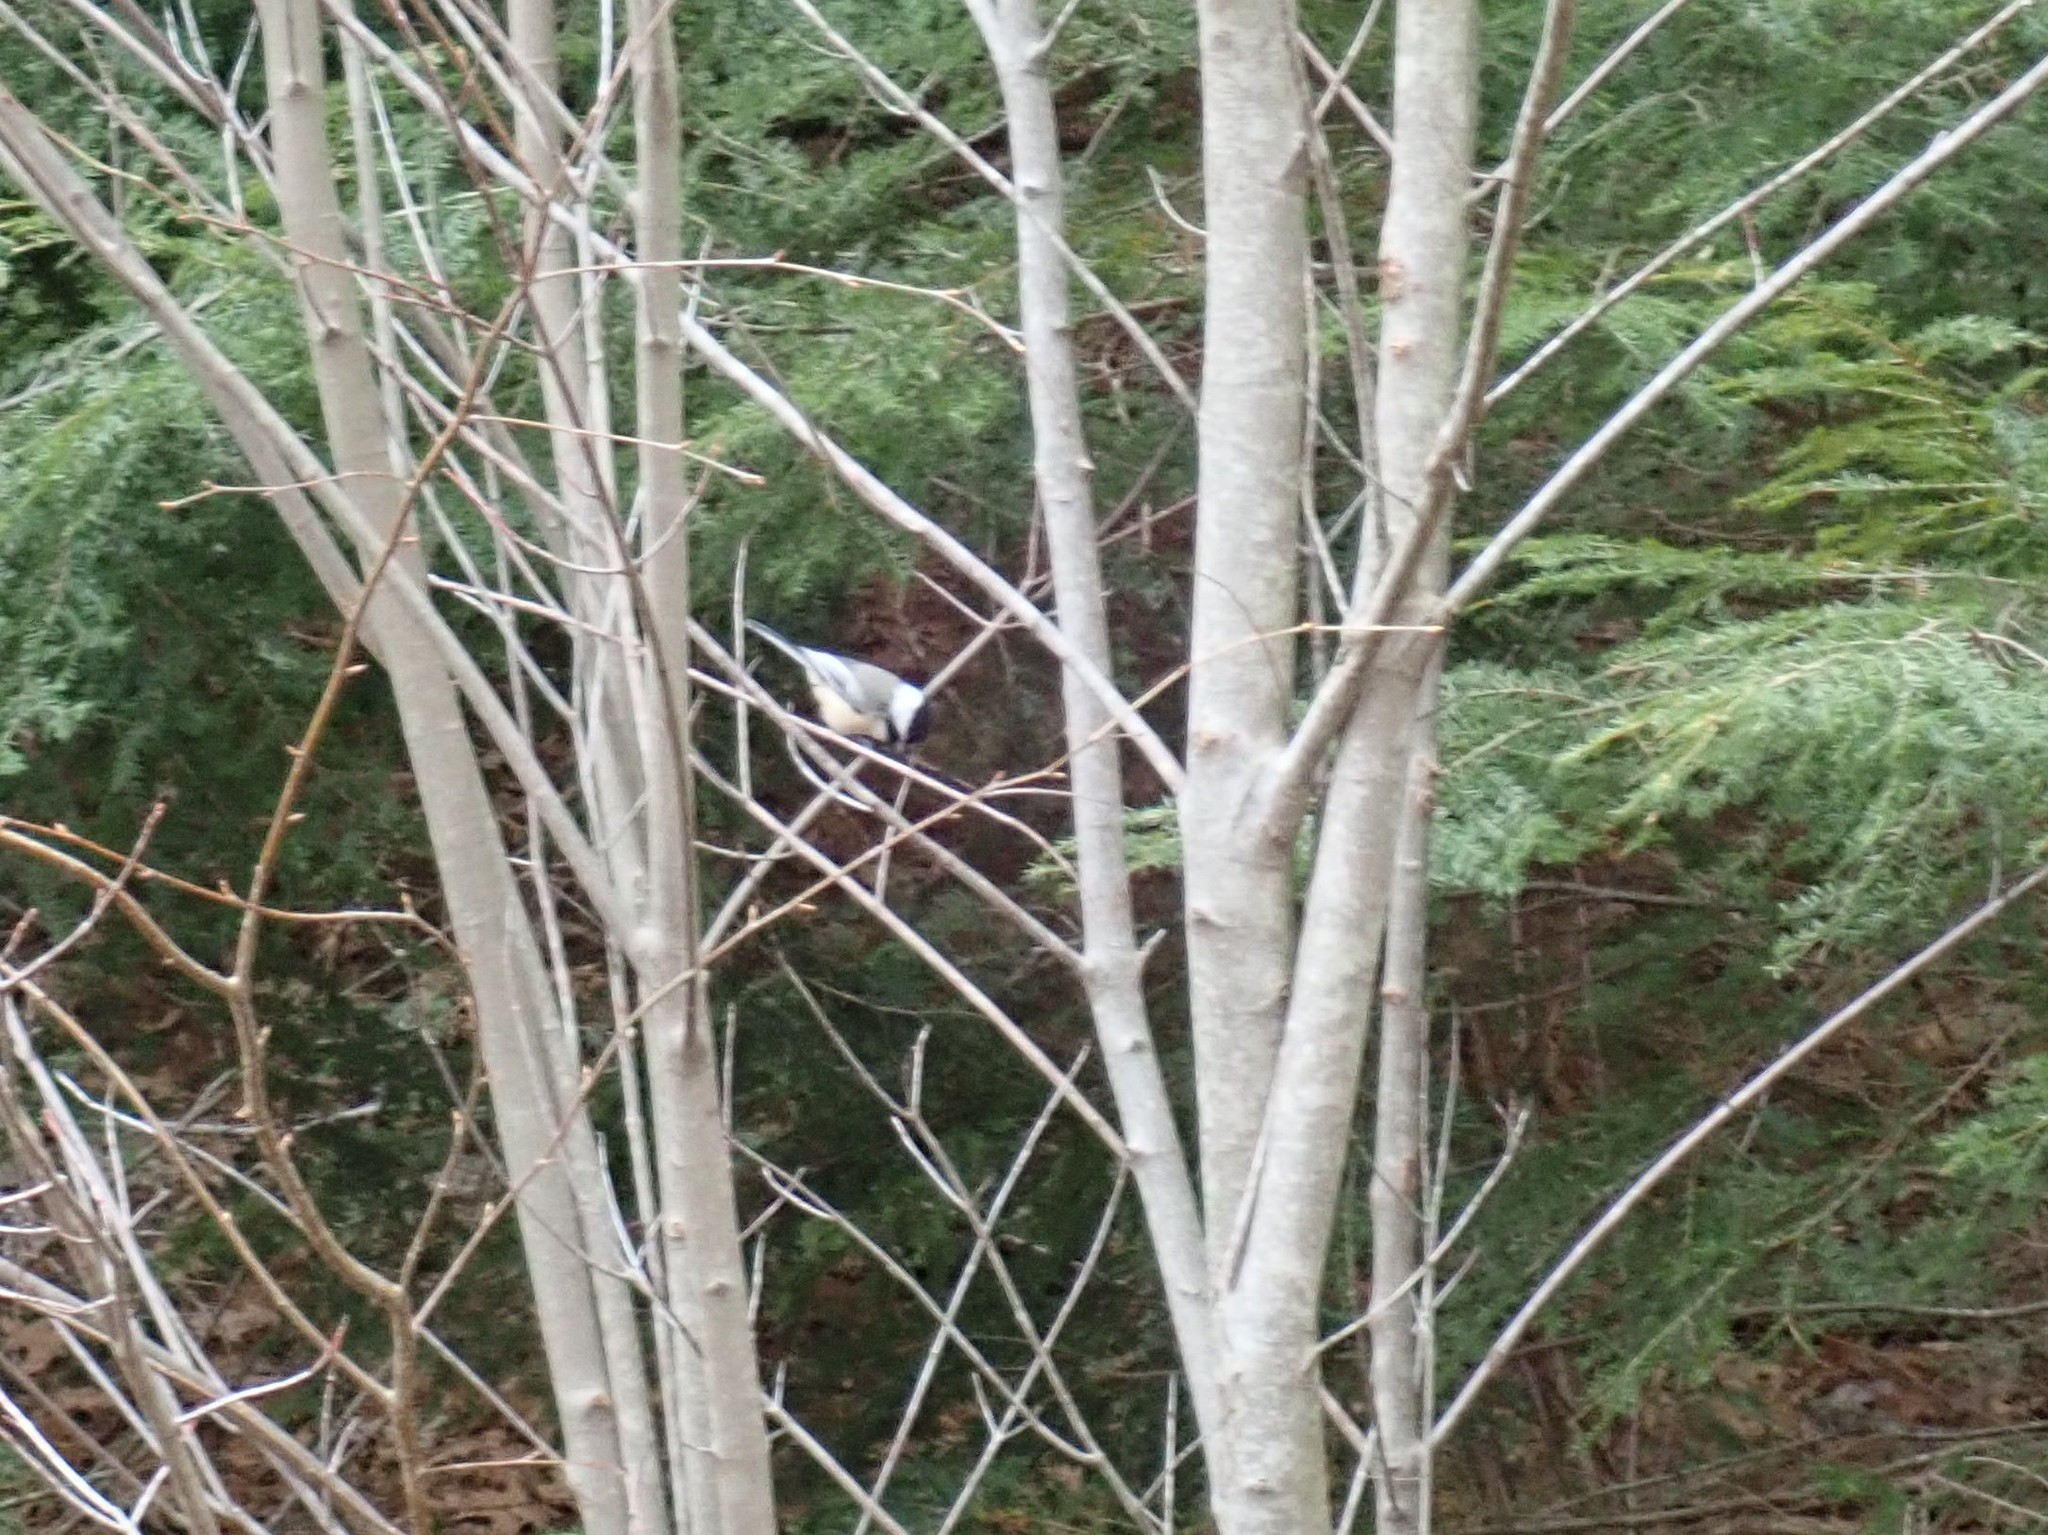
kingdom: Animalia
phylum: Chordata
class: Aves
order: Passeriformes
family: Paridae
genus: Poecile
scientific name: Poecile atricapillus
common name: Black-capped chickadee
